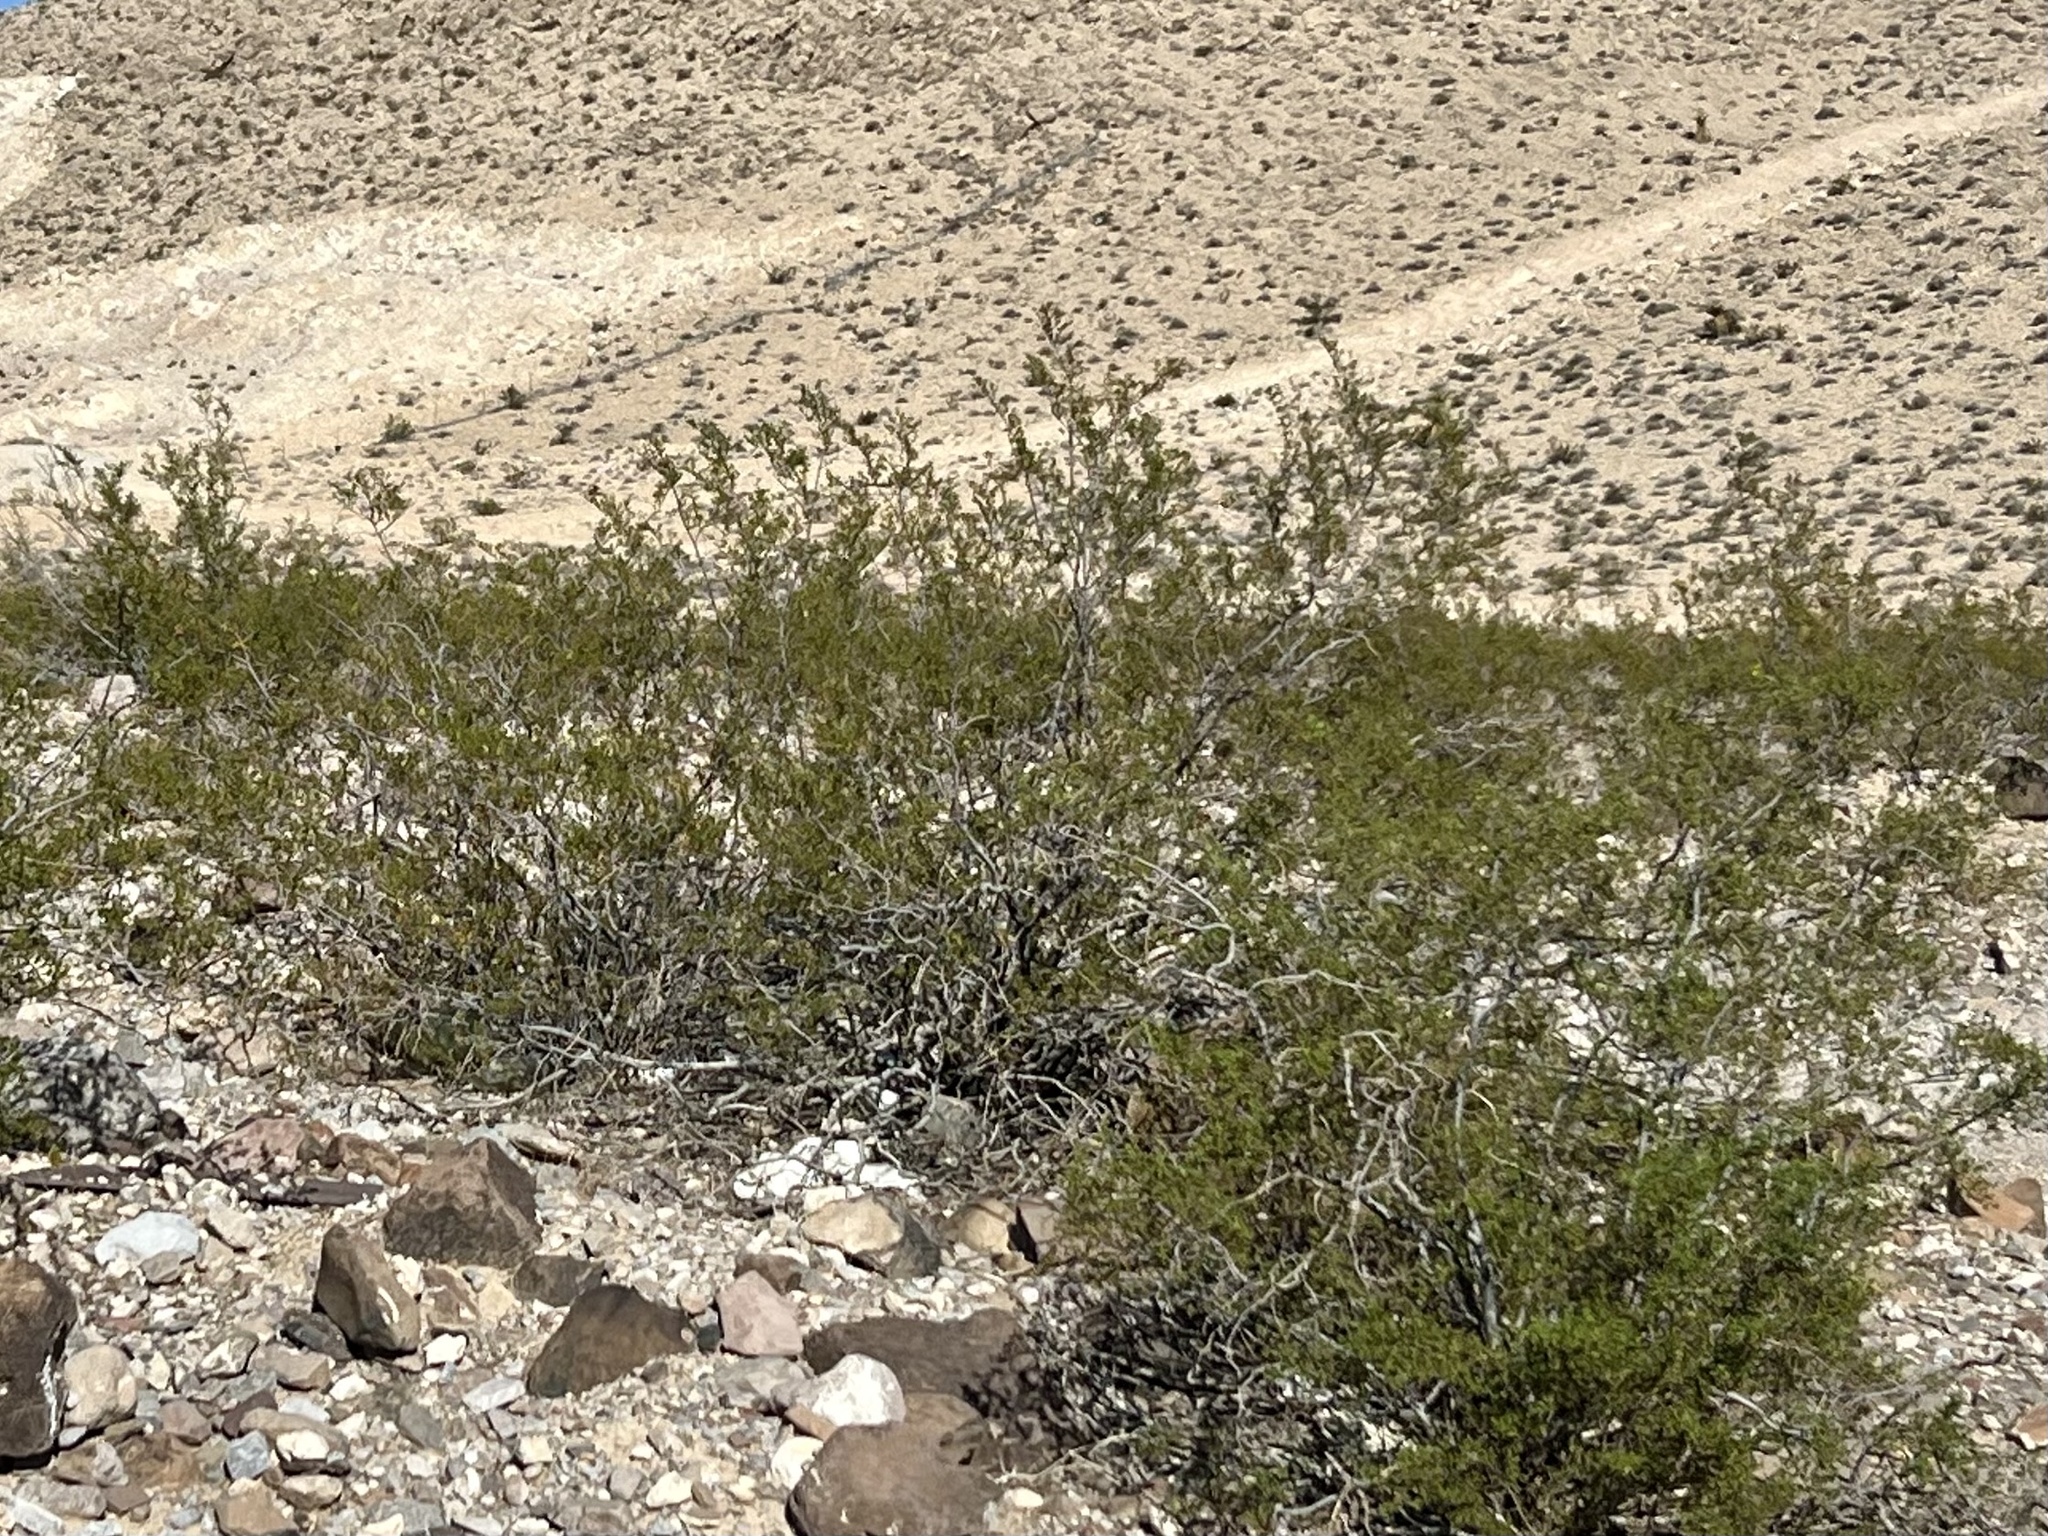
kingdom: Plantae
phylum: Tracheophyta
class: Magnoliopsida
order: Zygophyllales
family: Zygophyllaceae
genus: Larrea
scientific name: Larrea tridentata
